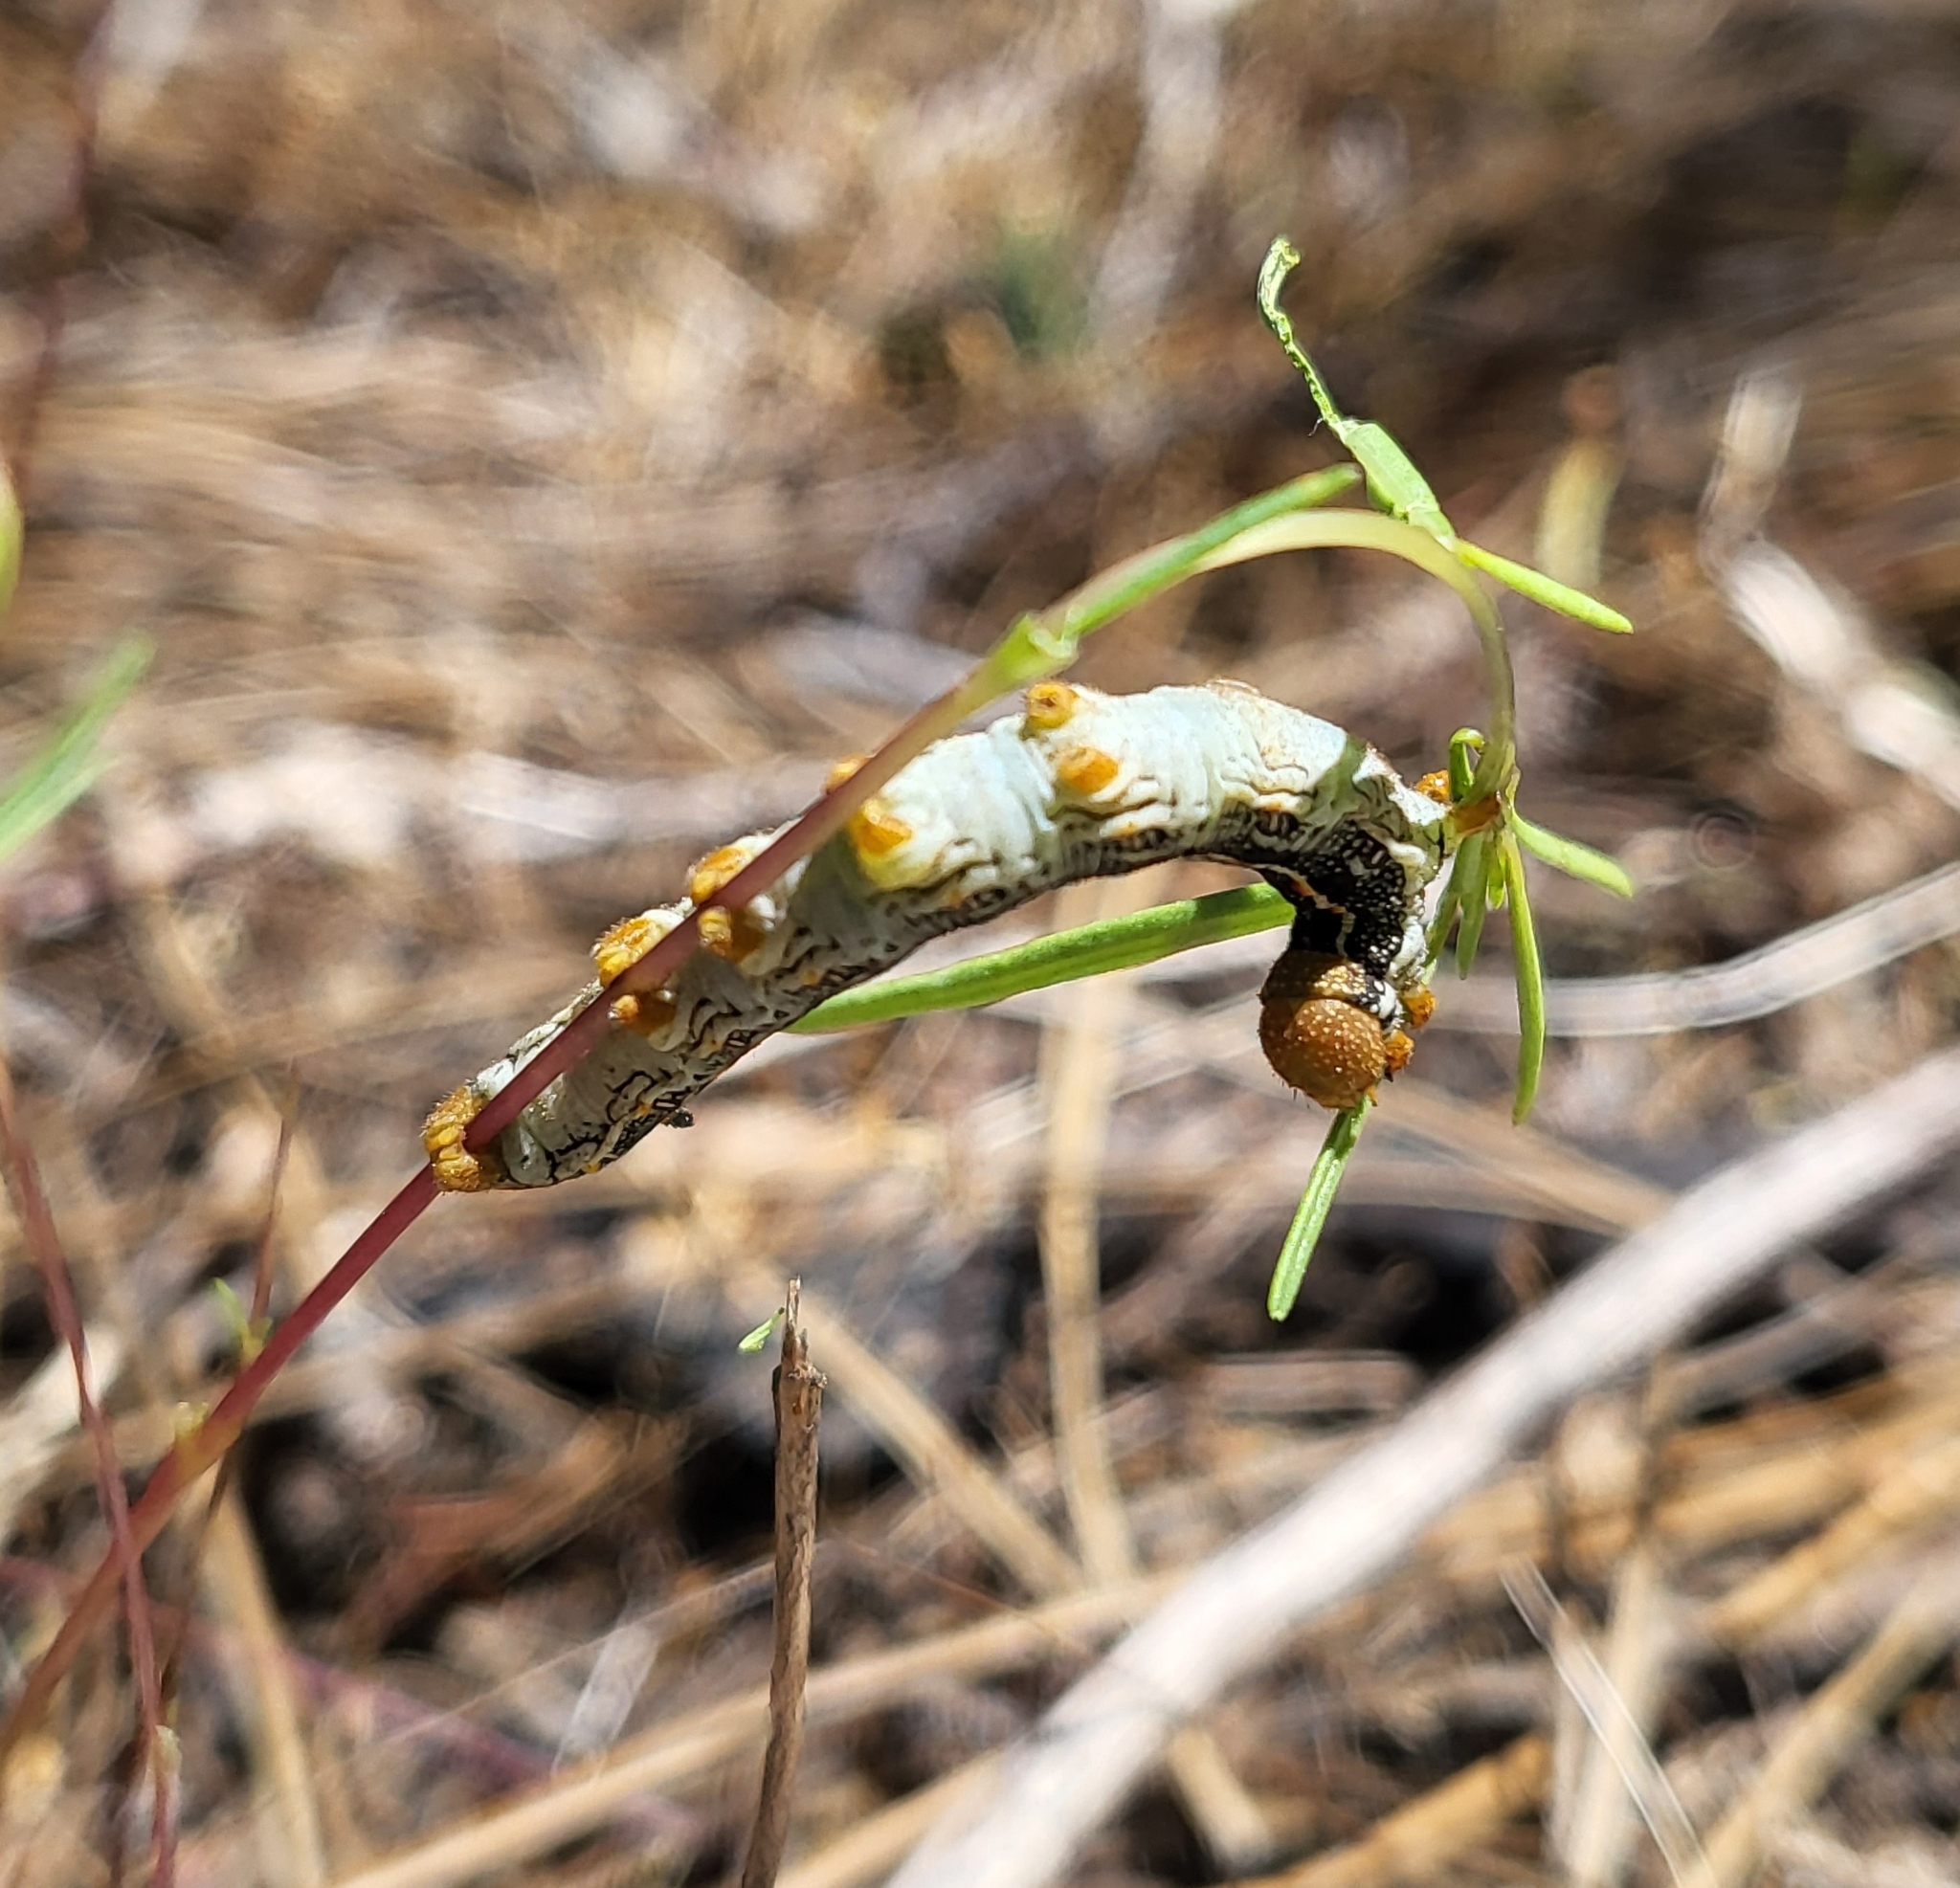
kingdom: Animalia
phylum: Arthropoda
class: Insecta
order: Lepidoptera
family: Sphingidae
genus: Hyles
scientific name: Hyles lineata
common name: White-lined sphinx
